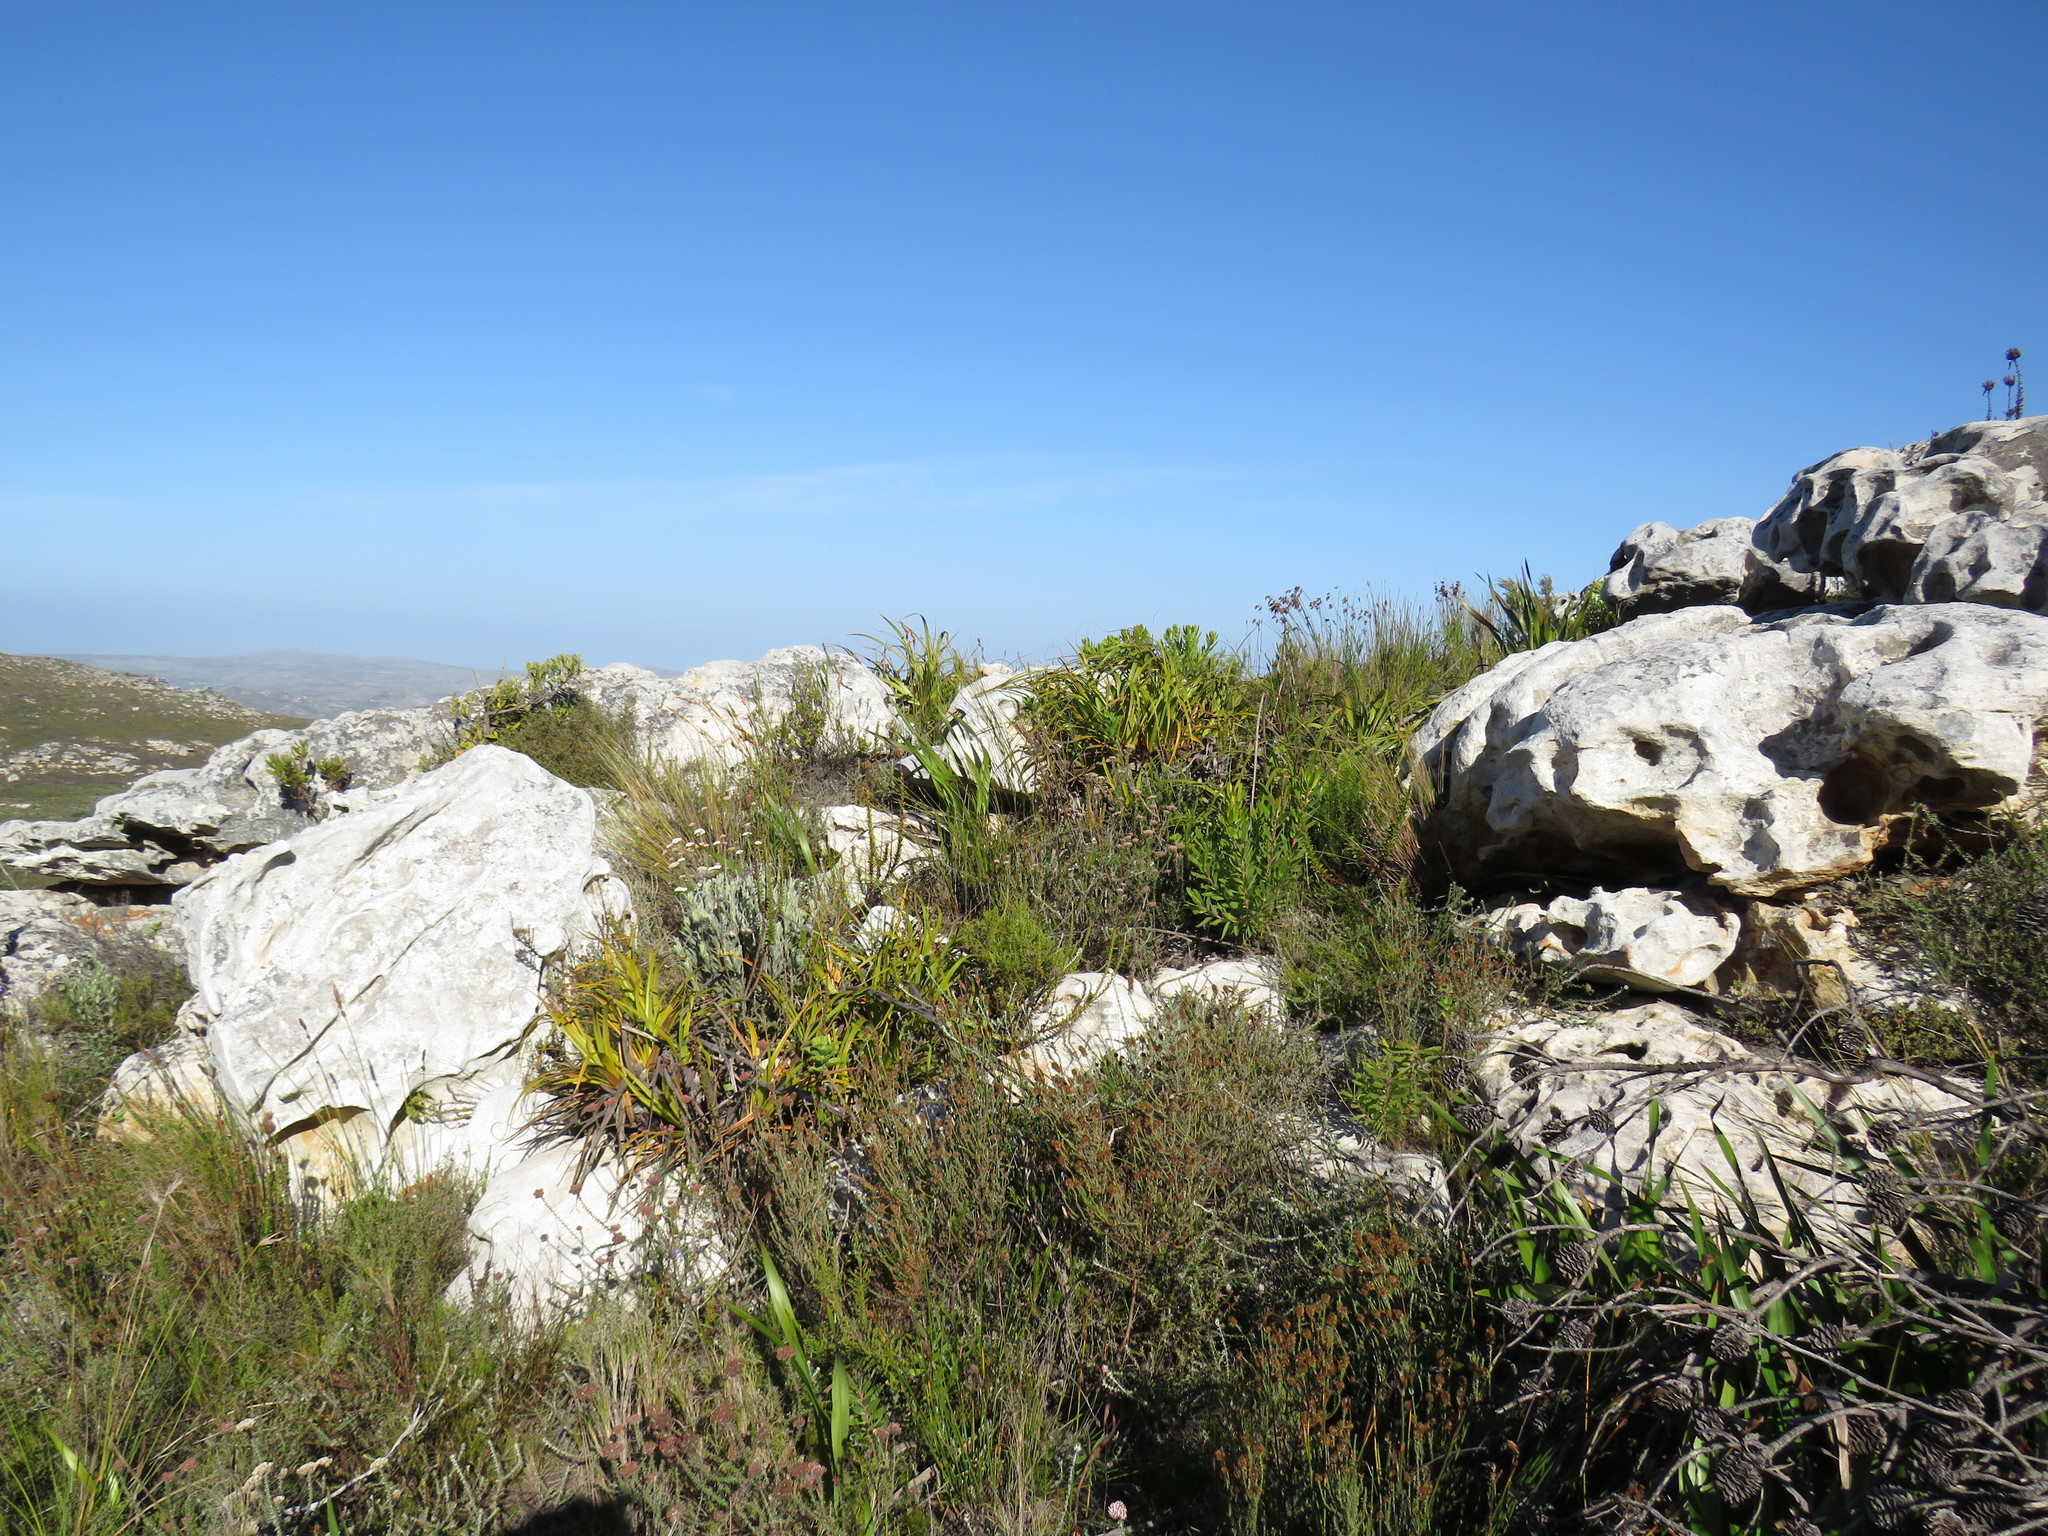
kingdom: Plantae
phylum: Tracheophyta
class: Liliopsida
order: Poales
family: Cyperaceae
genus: Tetraria
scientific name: Tetraria thermalis
